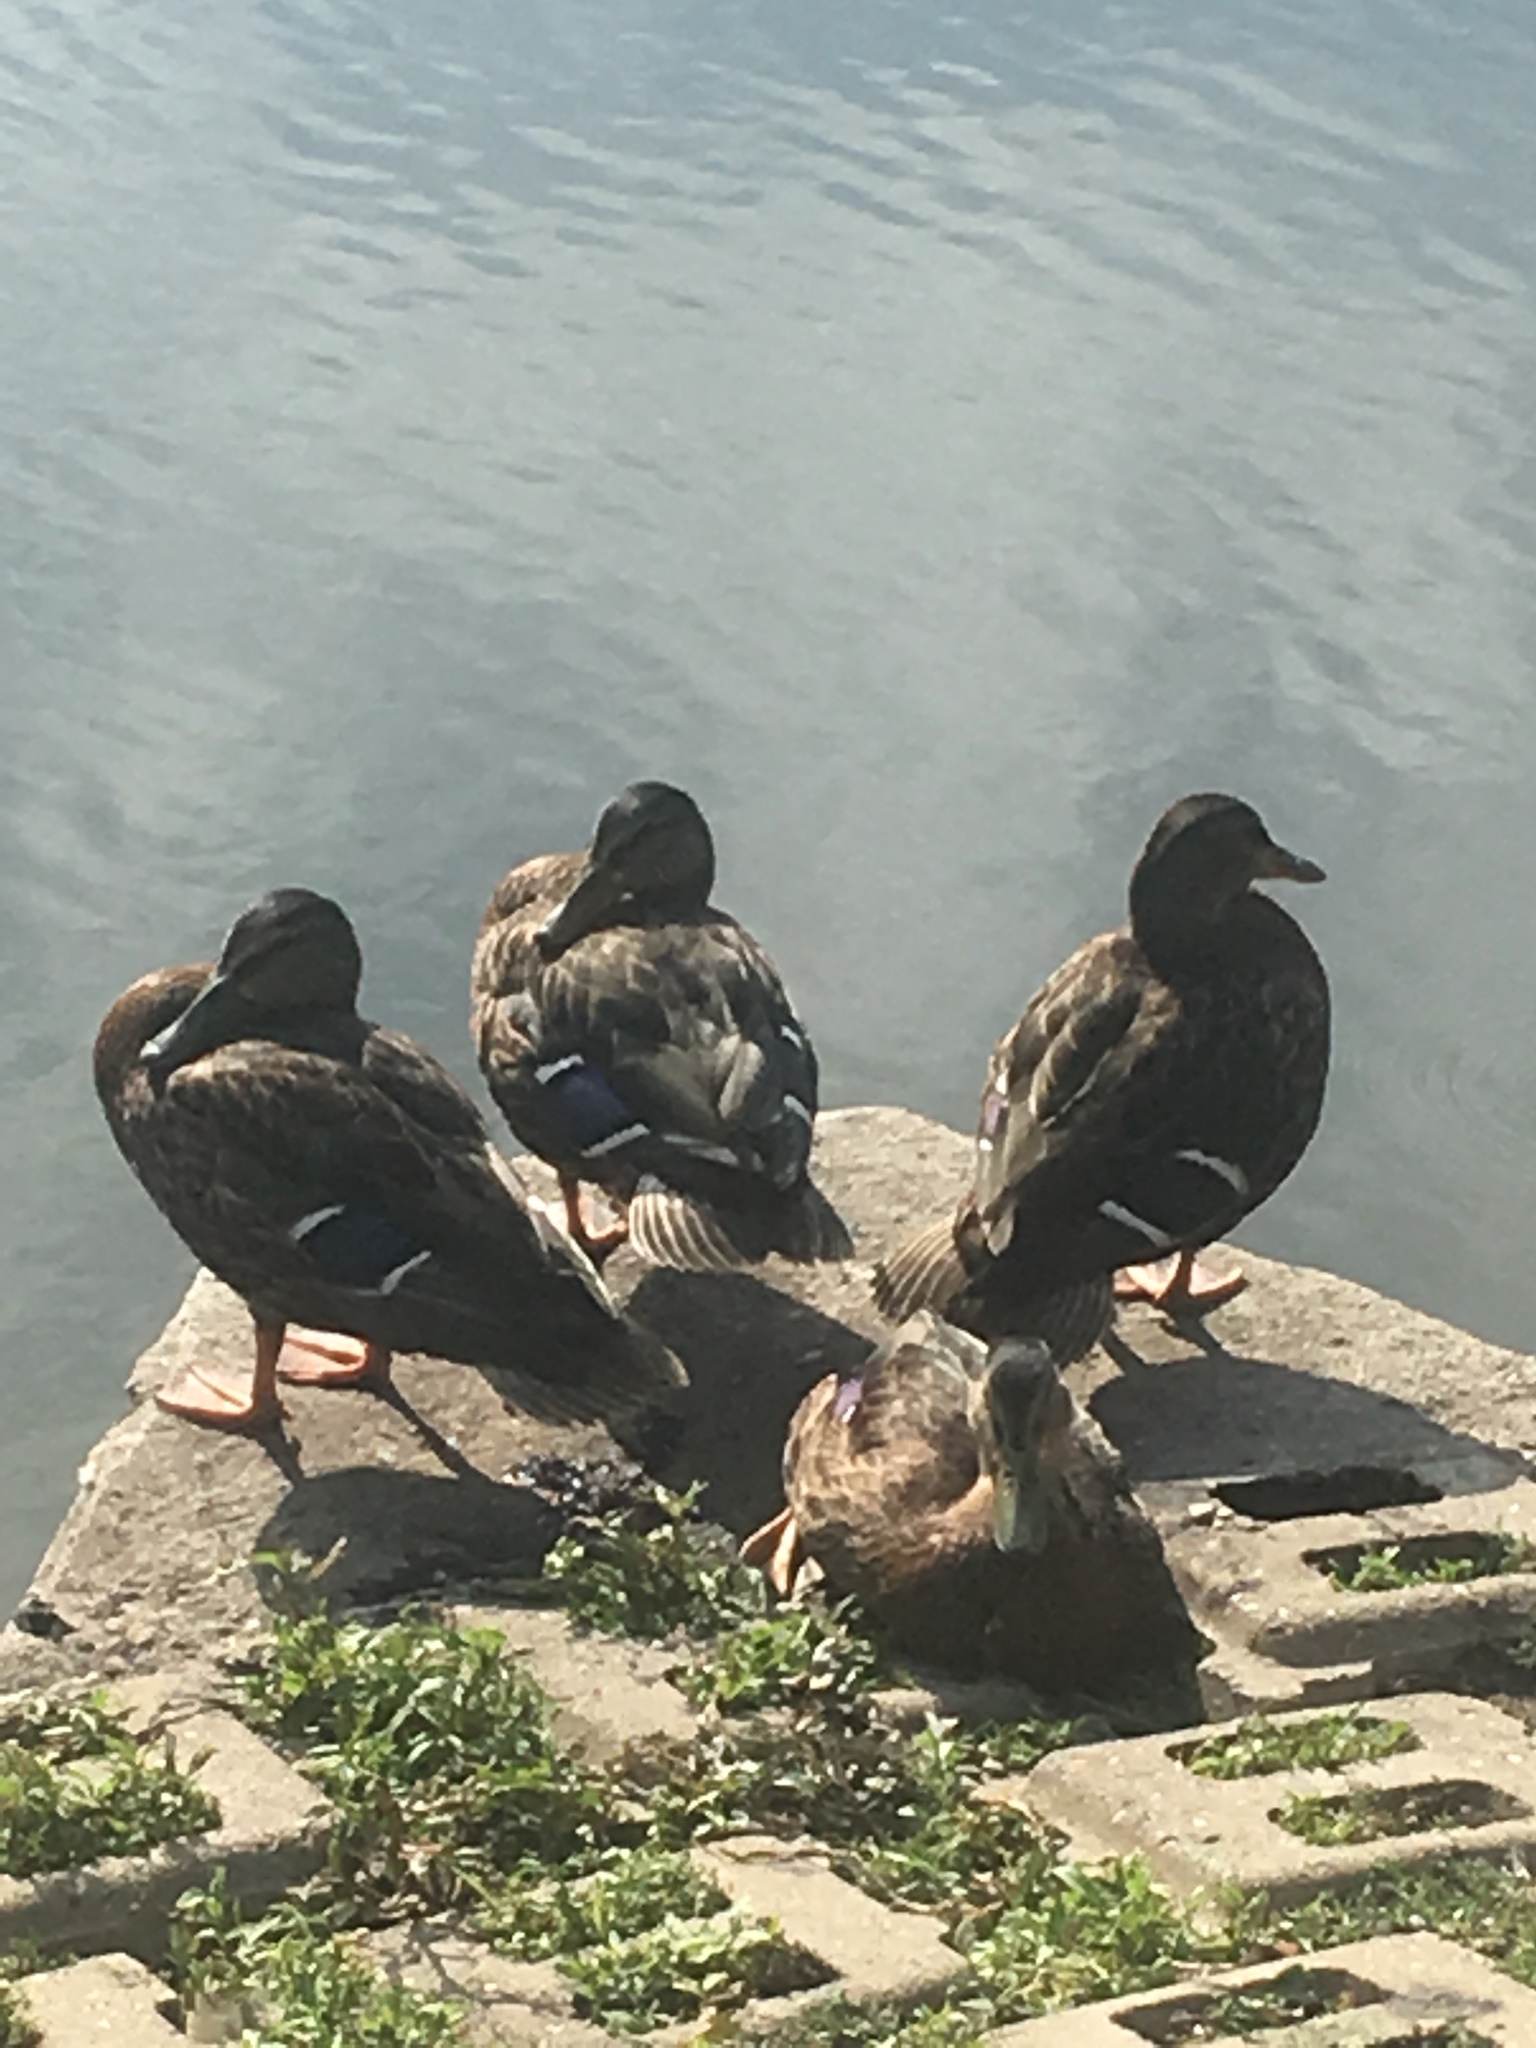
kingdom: Animalia
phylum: Chordata
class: Aves
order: Anseriformes
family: Anatidae
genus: Anas
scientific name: Anas platyrhynchos
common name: Mallard
